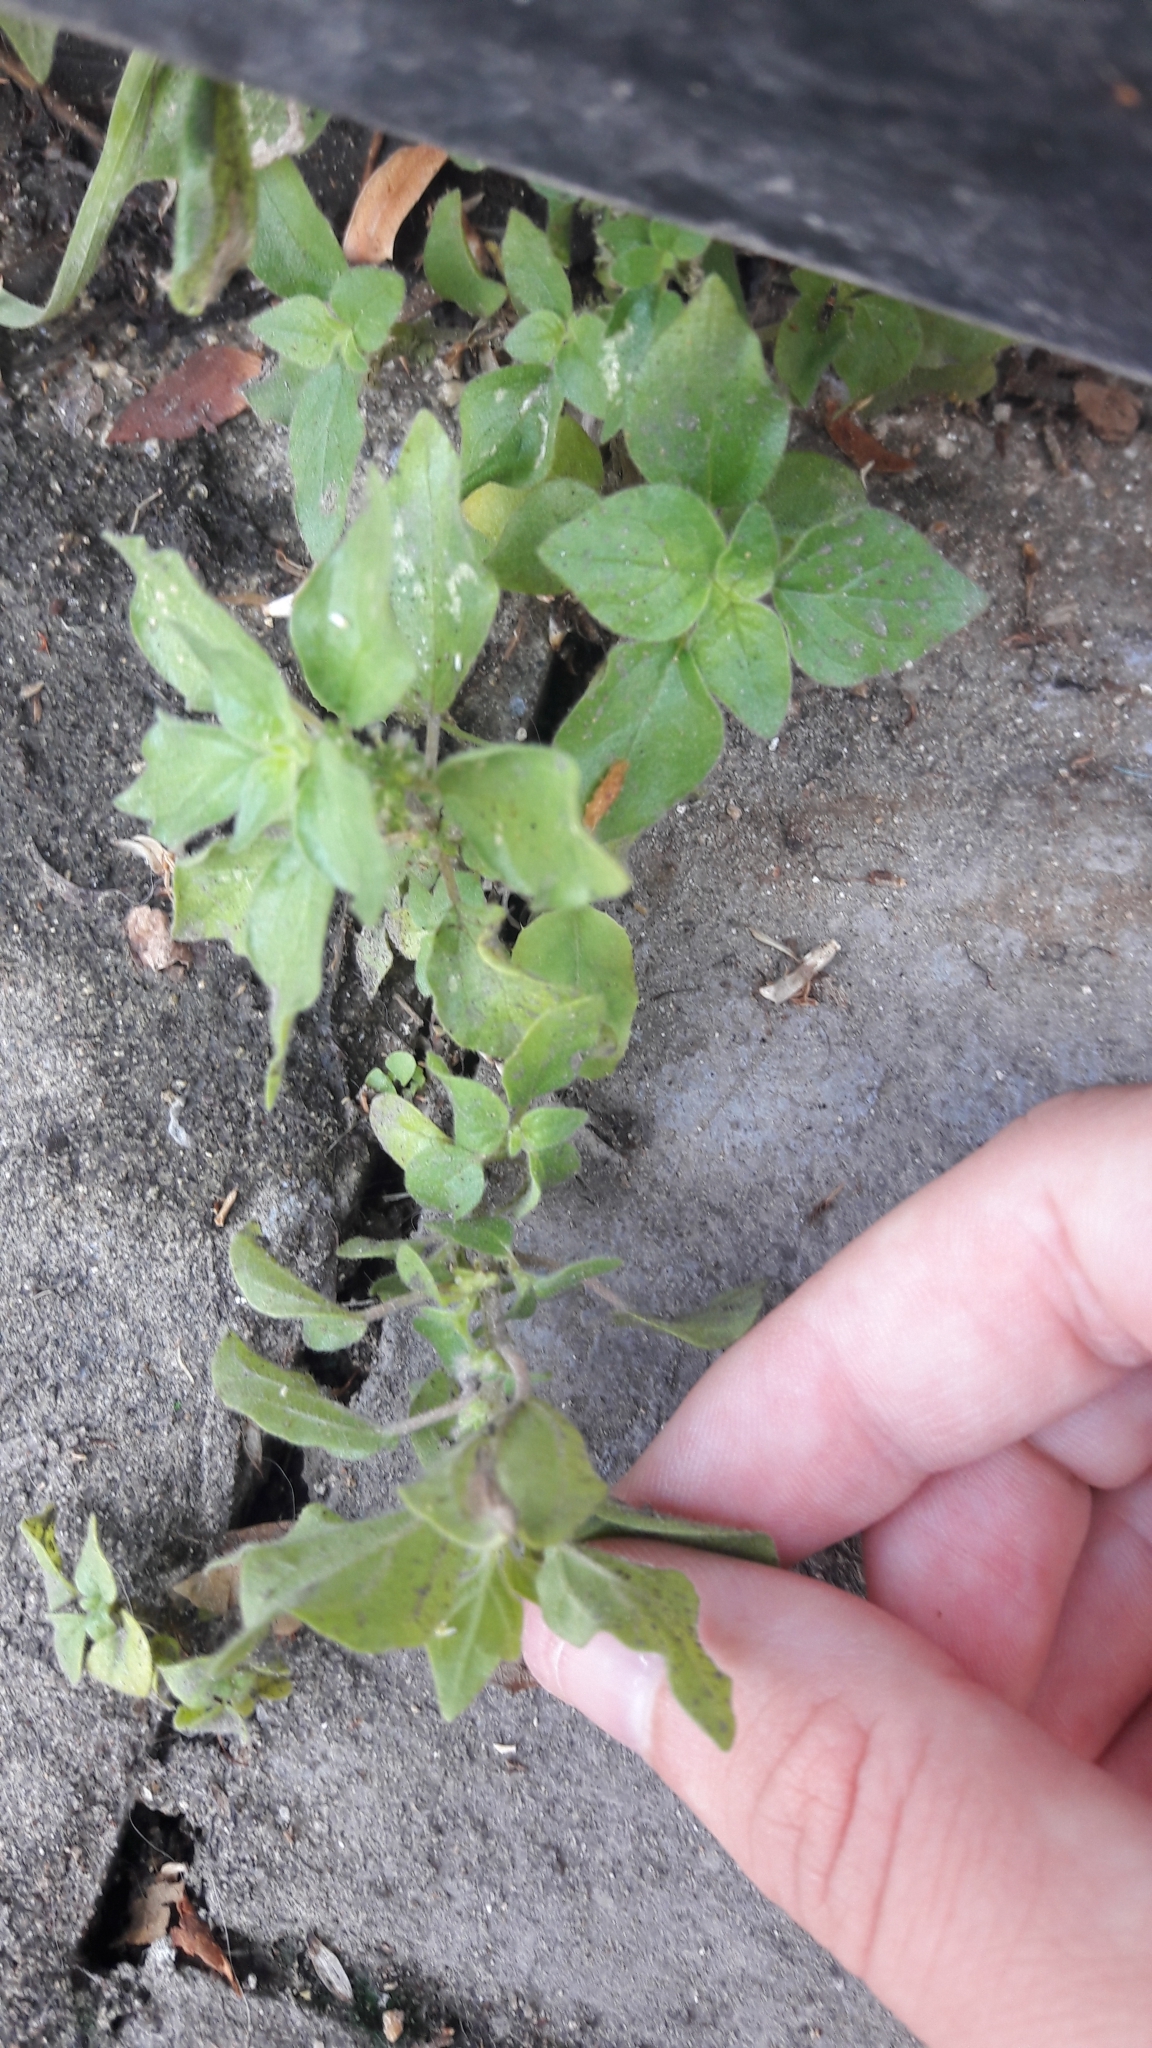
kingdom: Plantae
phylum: Tracheophyta
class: Magnoliopsida
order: Rosales
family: Urticaceae
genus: Parietaria
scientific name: Parietaria judaica
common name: Pellitory-of-the-wall
